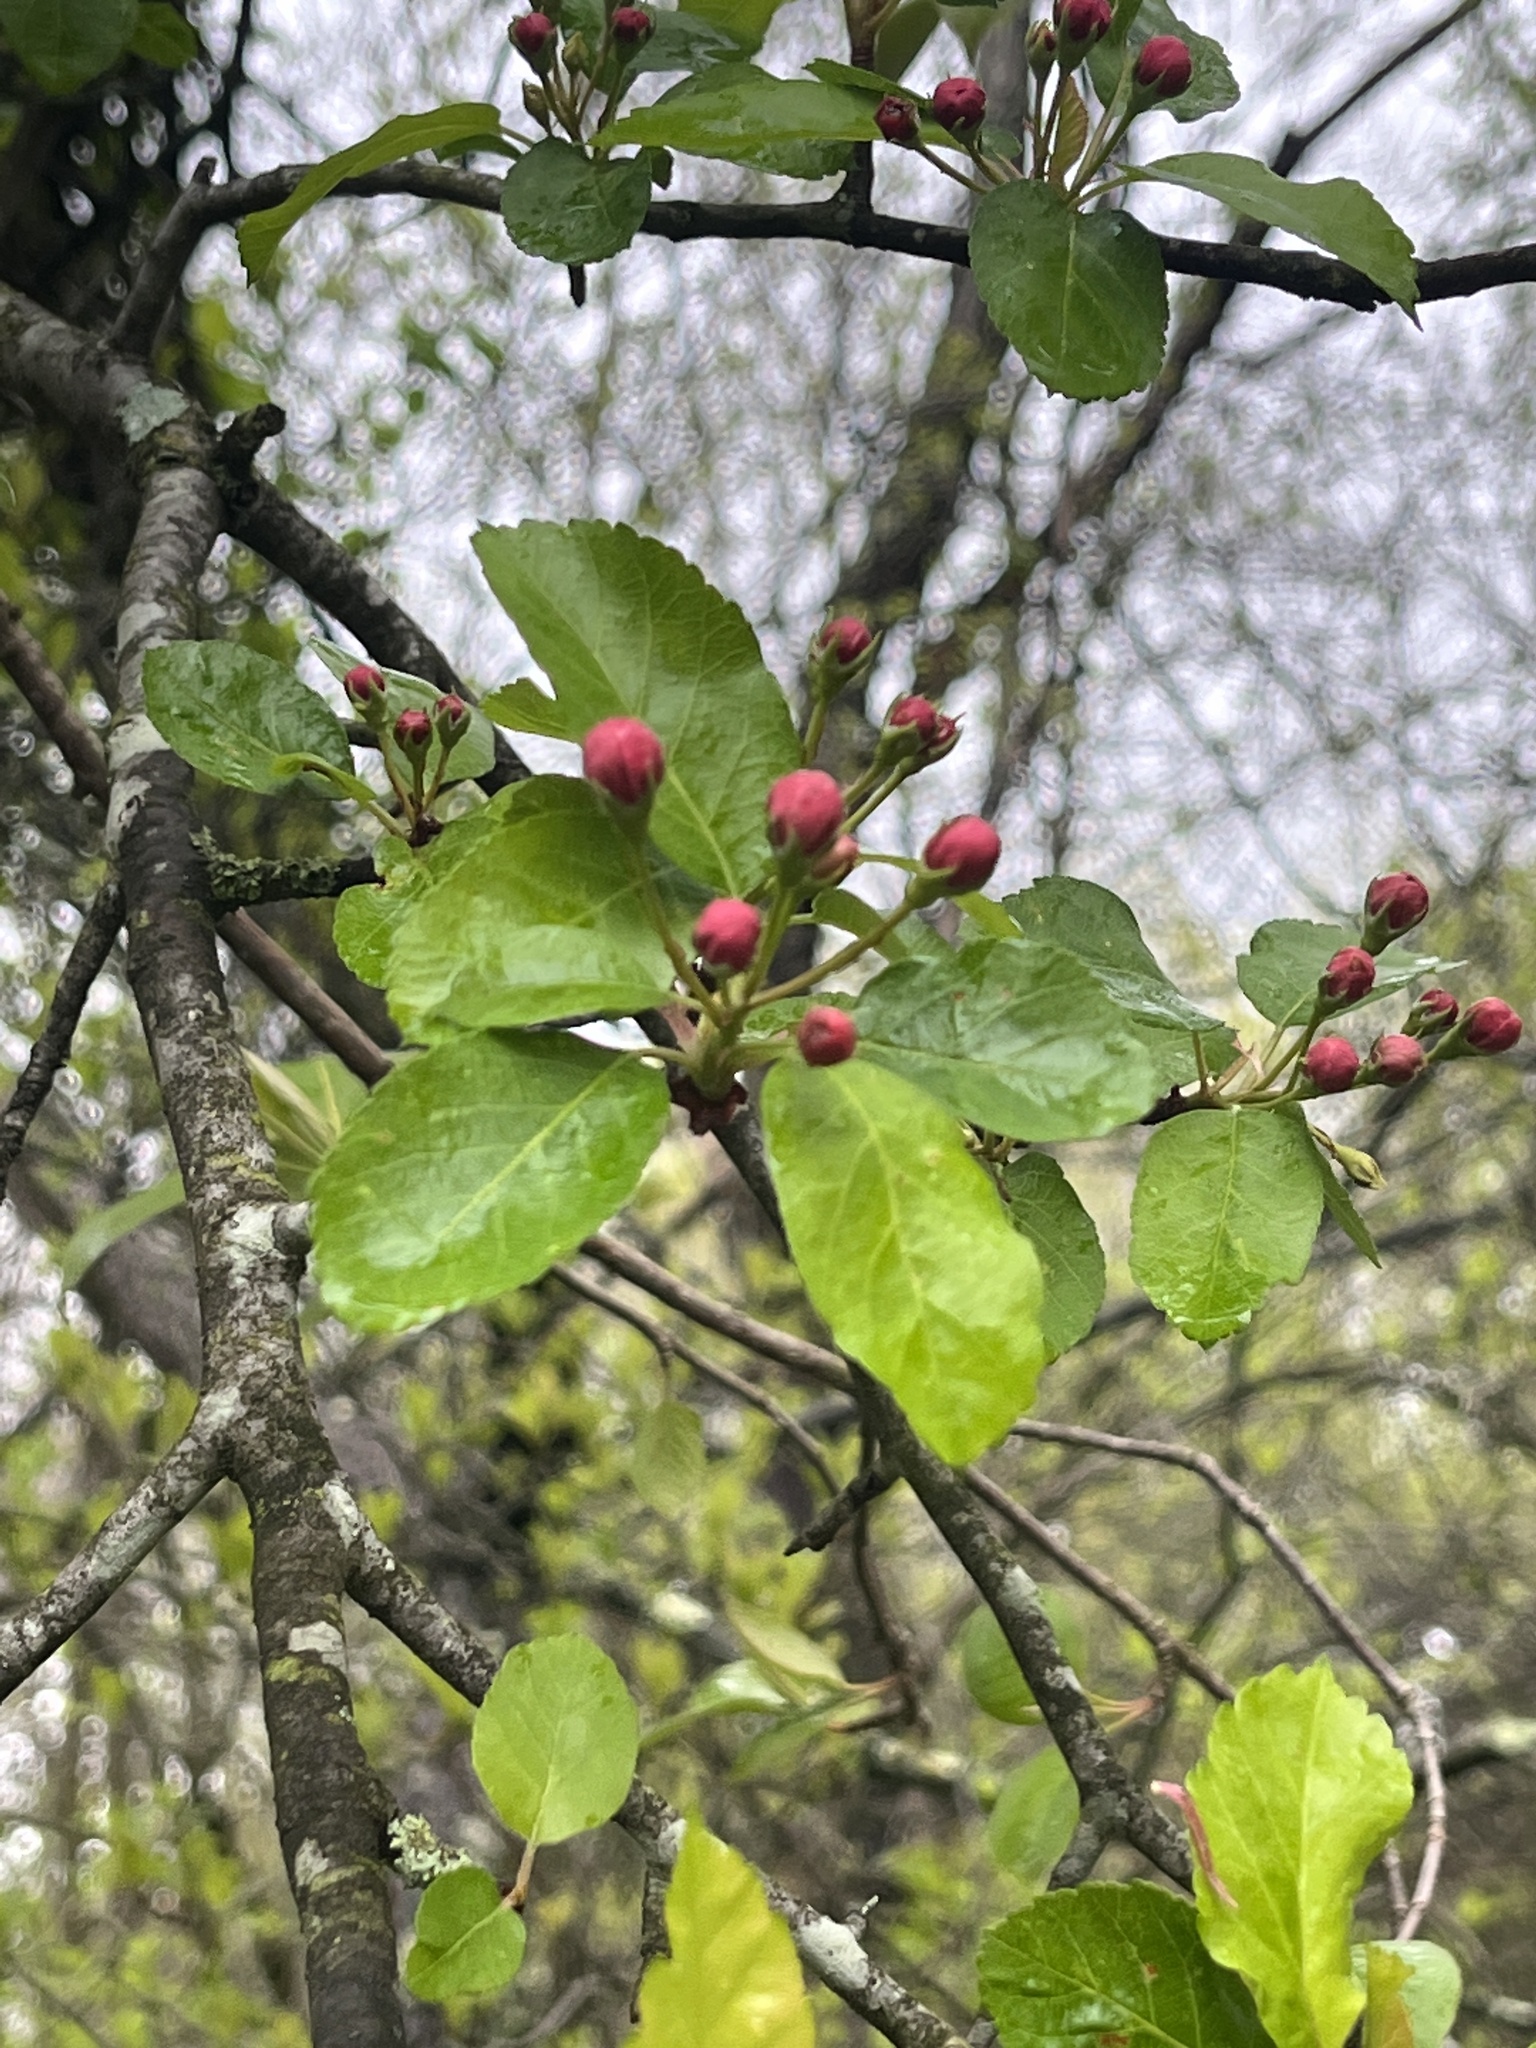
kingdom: Plantae
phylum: Tracheophyta
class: Magnoliopsida
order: Rosales
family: Rosaceae
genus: Malus
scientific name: Malus domestica
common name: Apple
